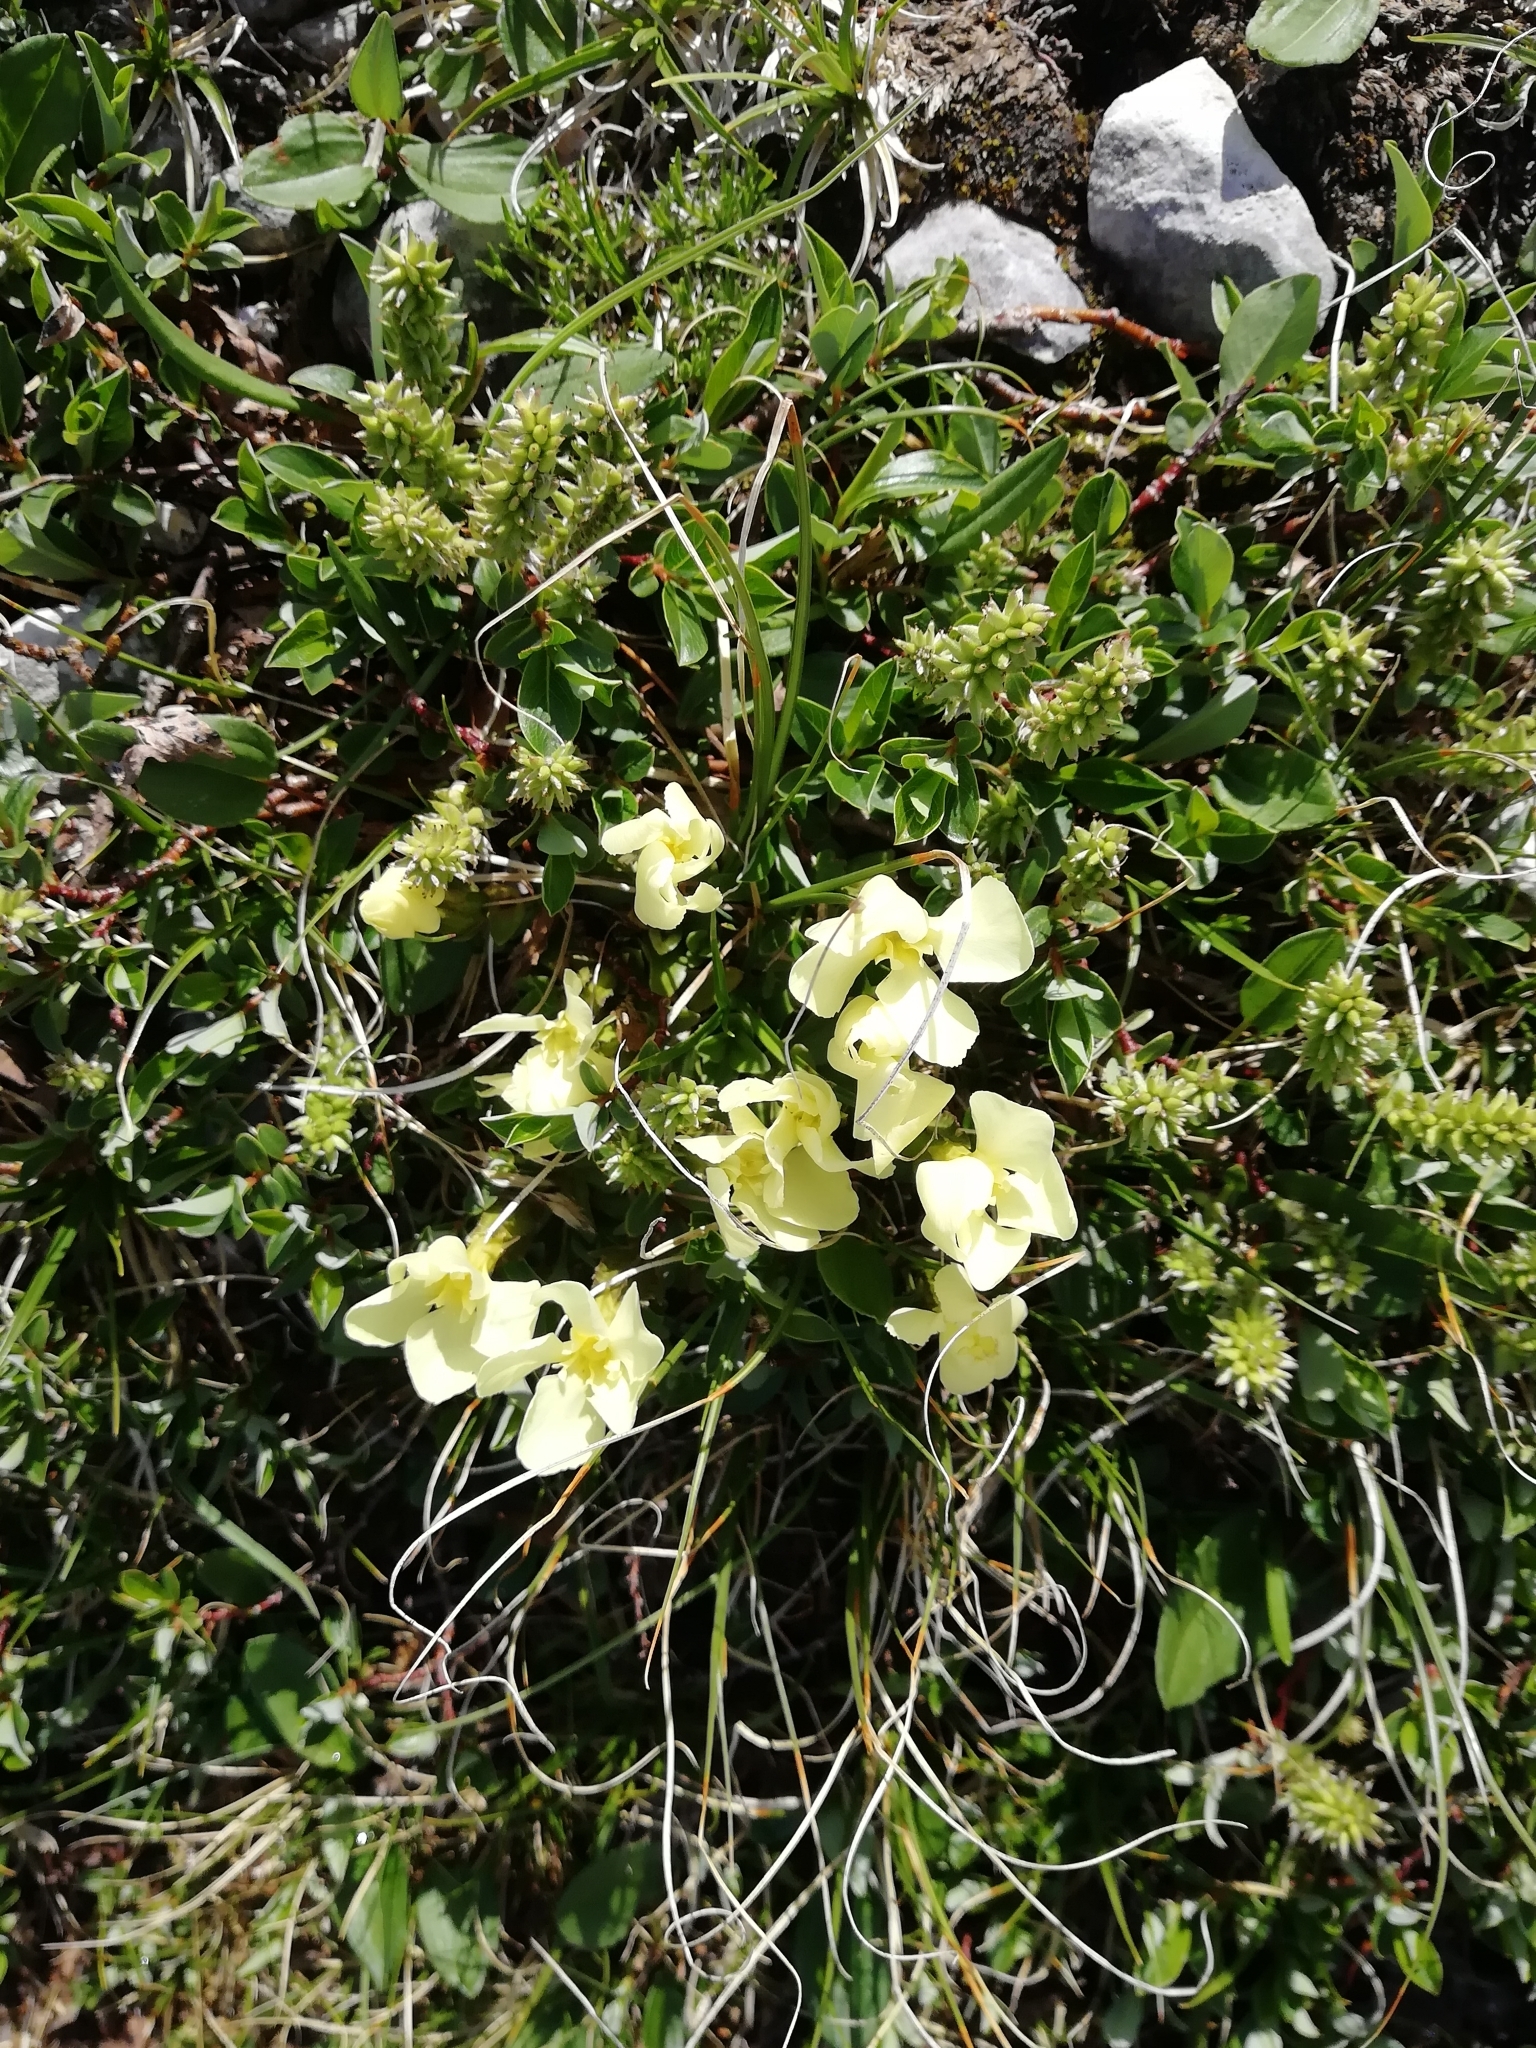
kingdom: Plantae
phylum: Tracheophyta
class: Magnoliopsida
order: Gentianales
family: Gentianaceae
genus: Gentiana
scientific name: Gentiana verna
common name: Spring gentian
